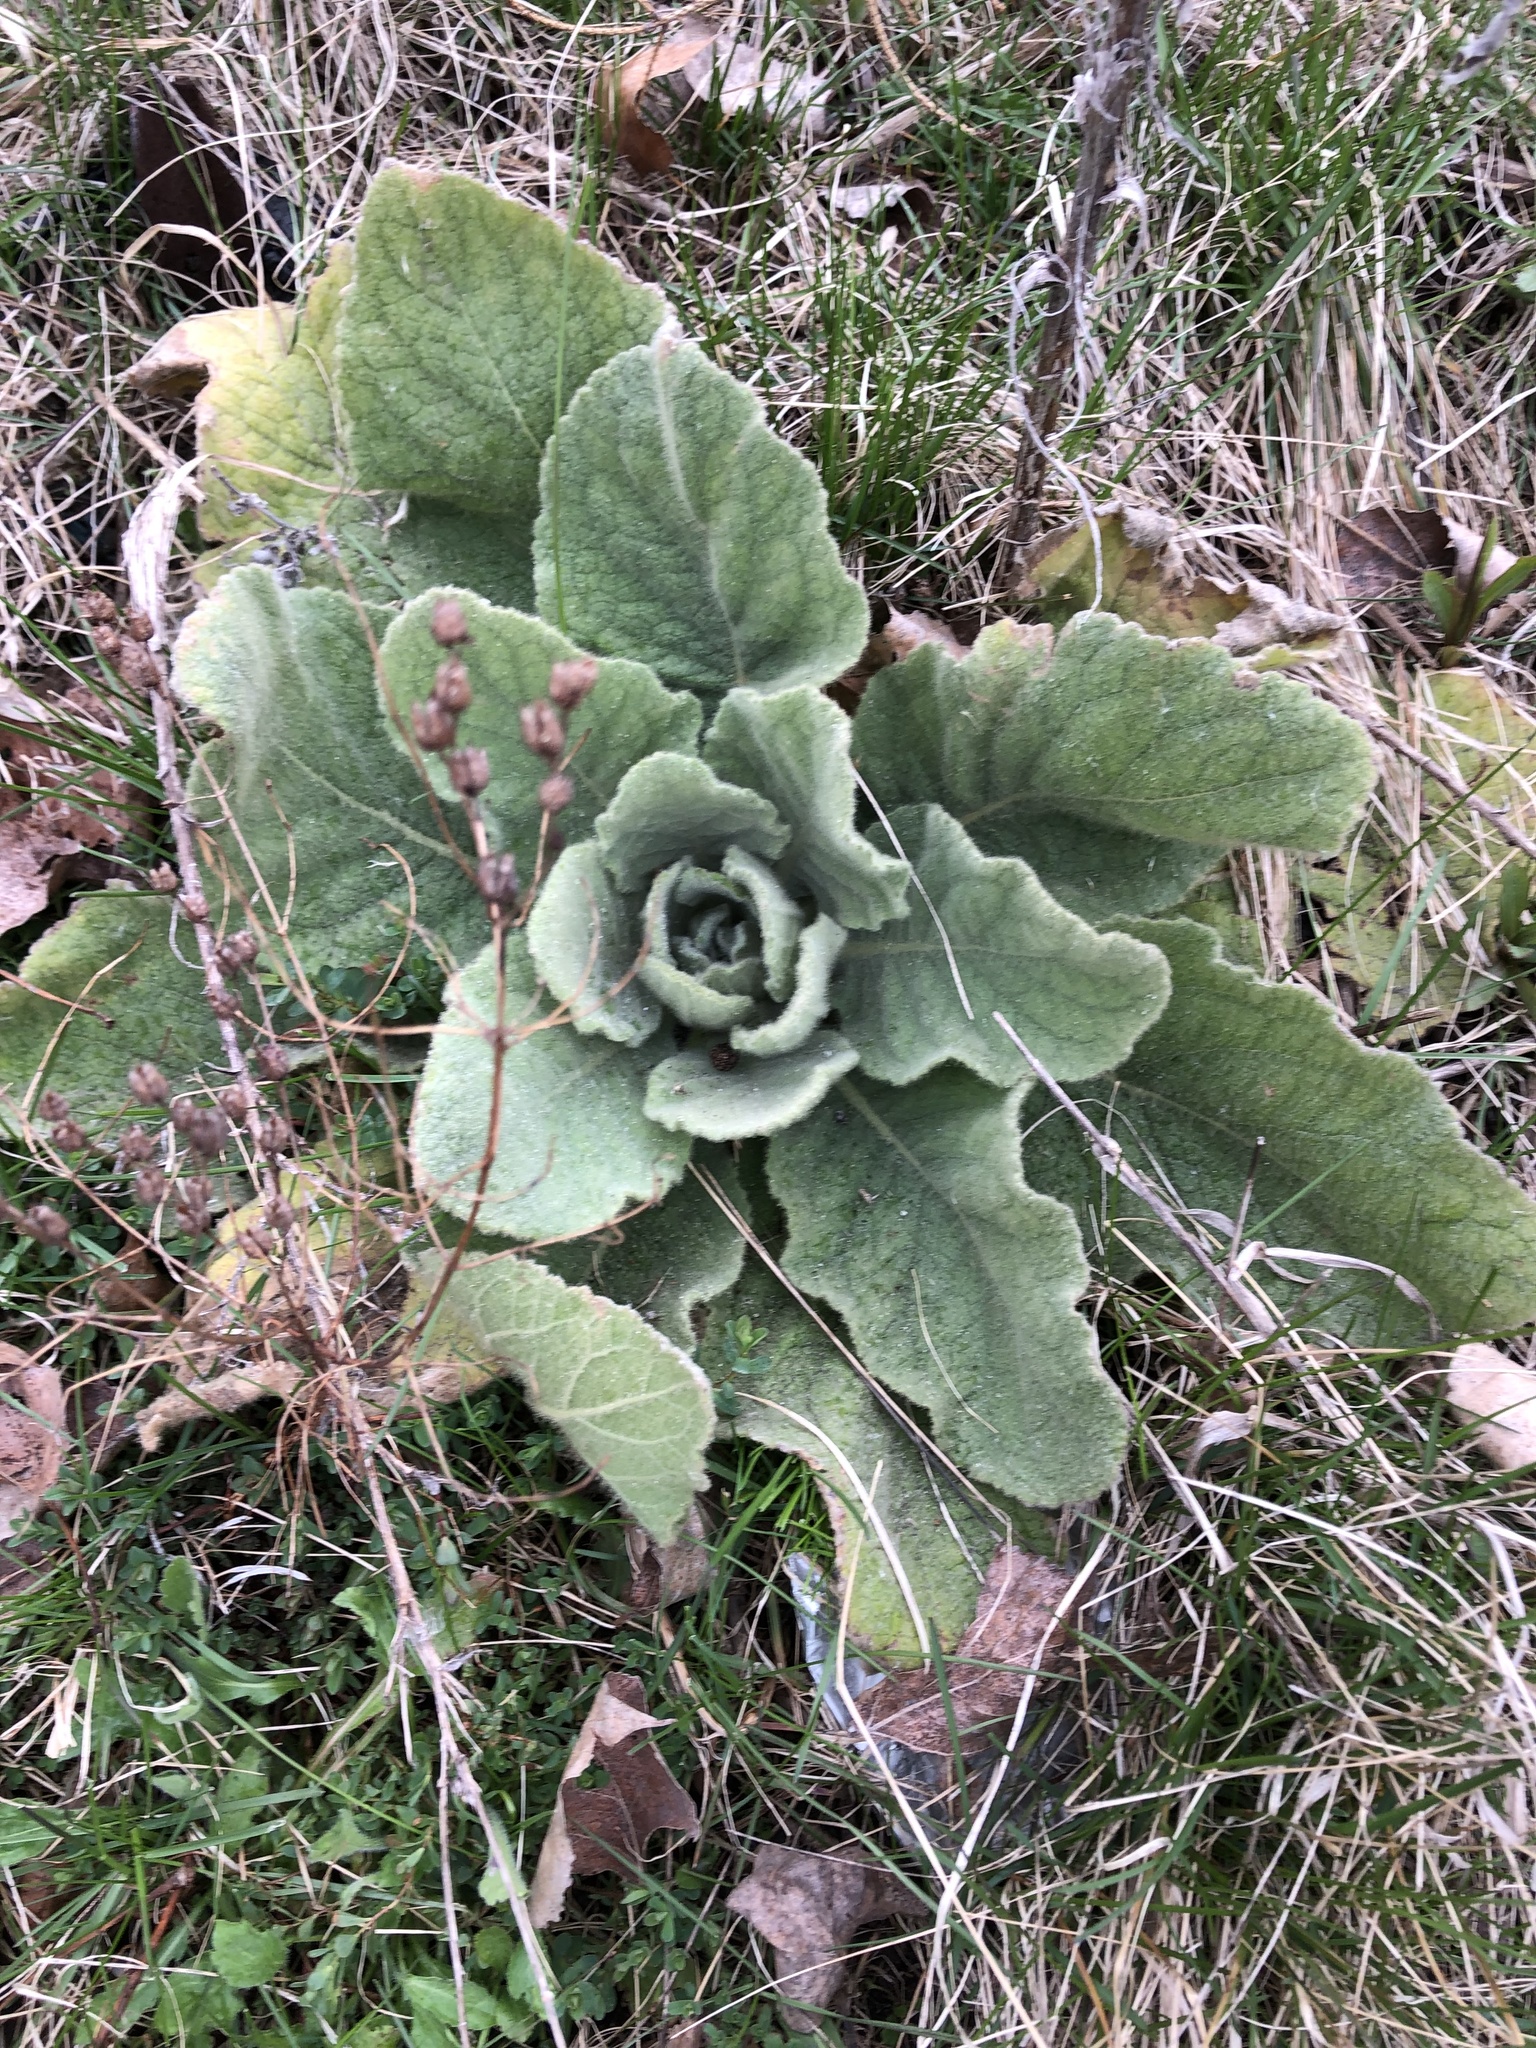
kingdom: Plantae
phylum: Tracheophyta
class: Magnoliopsida
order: Lamiales
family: Scrophulariaceae
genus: Verbascum
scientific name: Verbascum thapsus
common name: Common mullein
